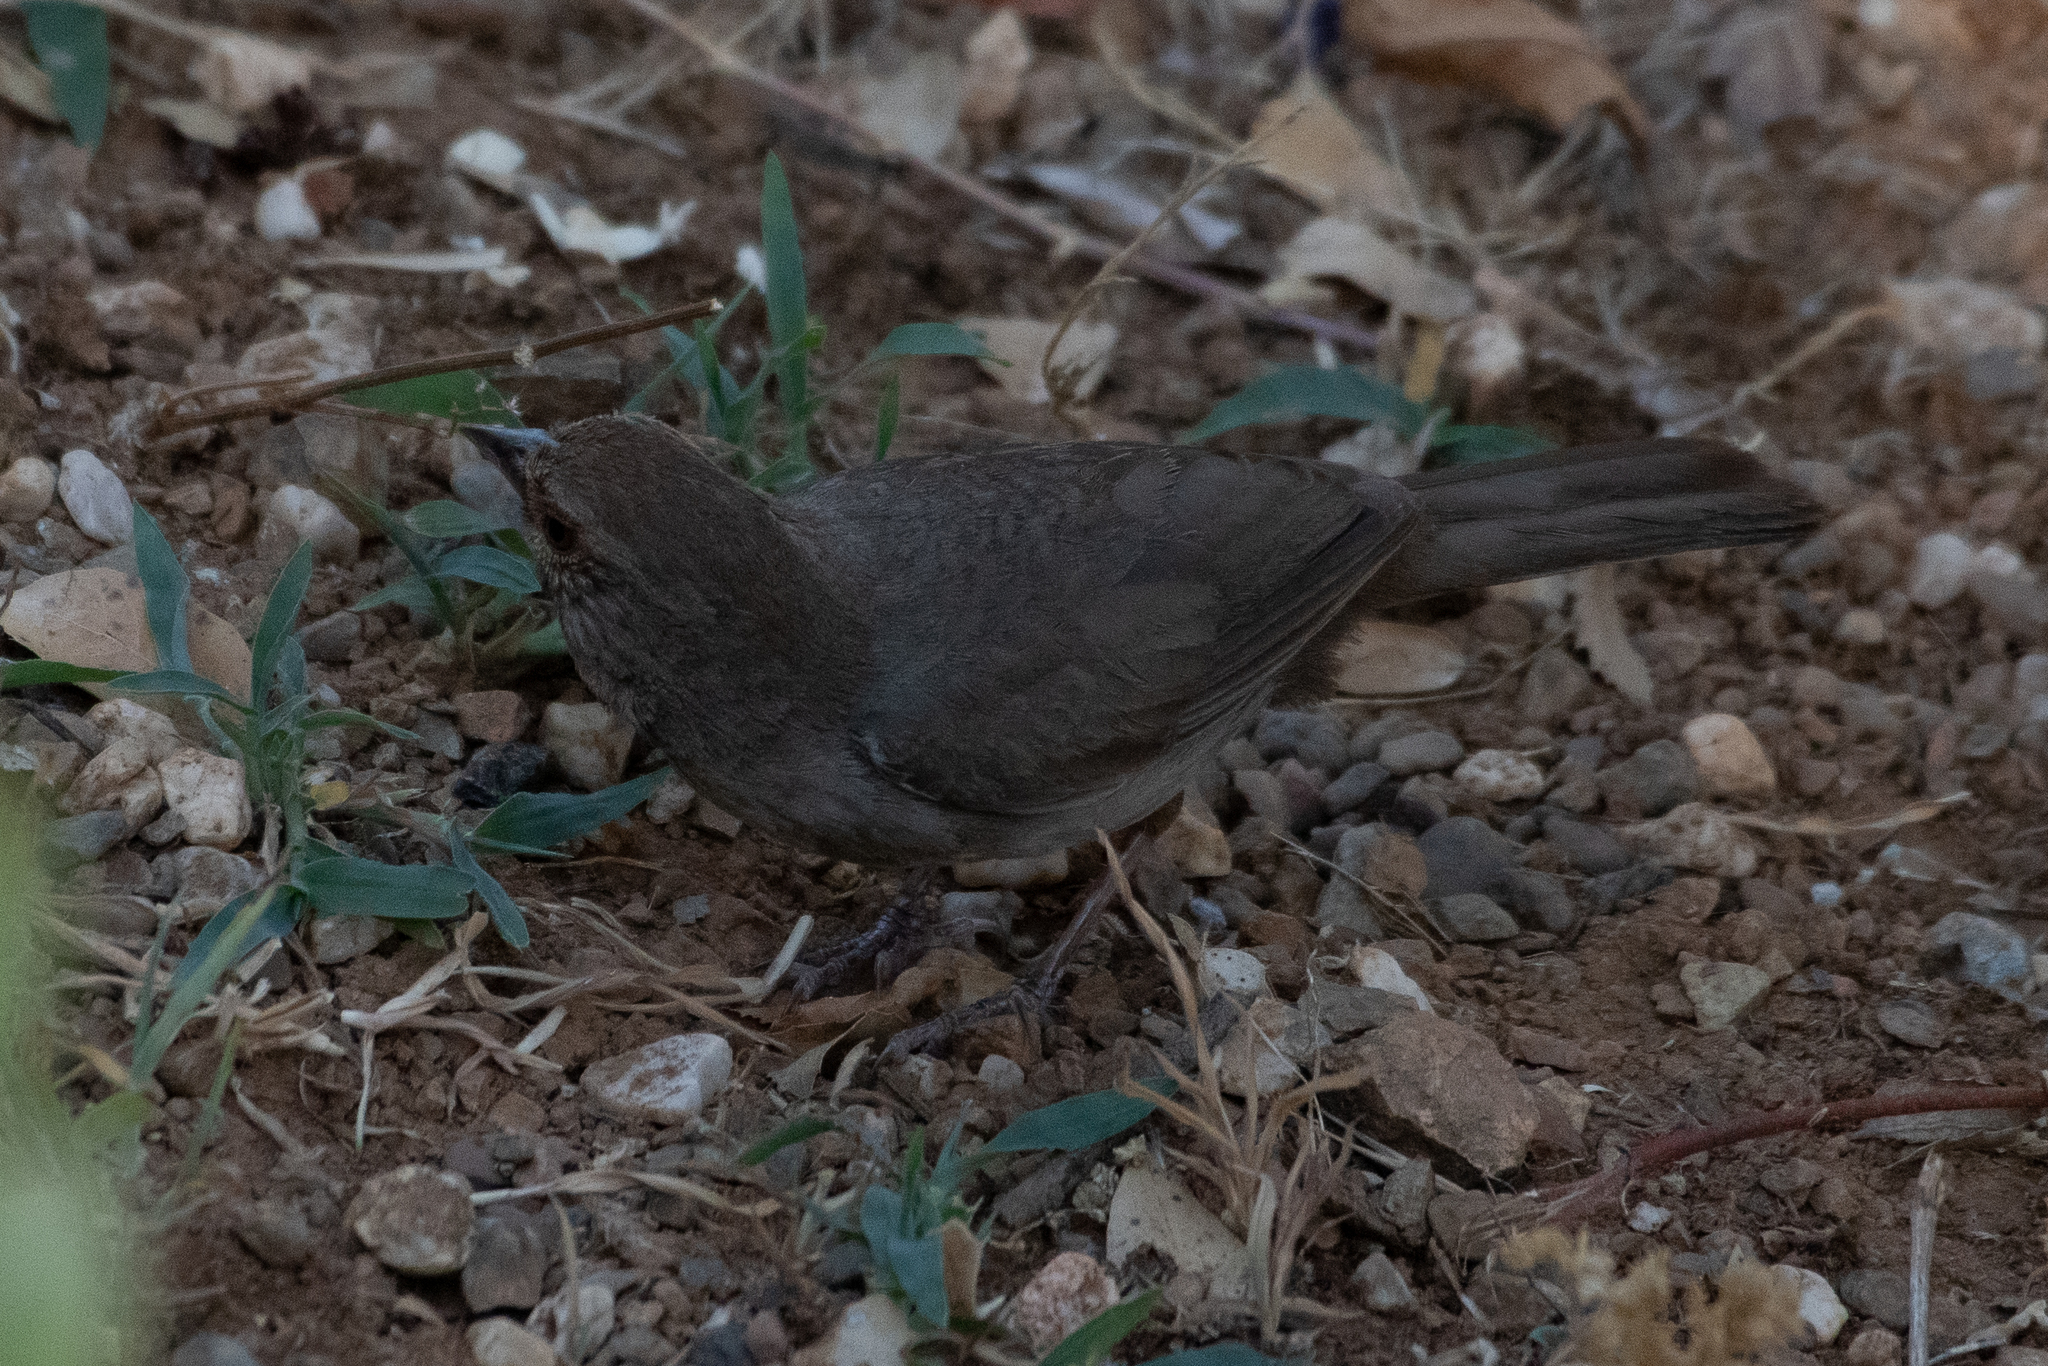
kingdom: Animalia
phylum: Chordata
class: Aves
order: Passeriformes
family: Passerellidae
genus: Melozone
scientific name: Melozone crissalis
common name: California towhee
